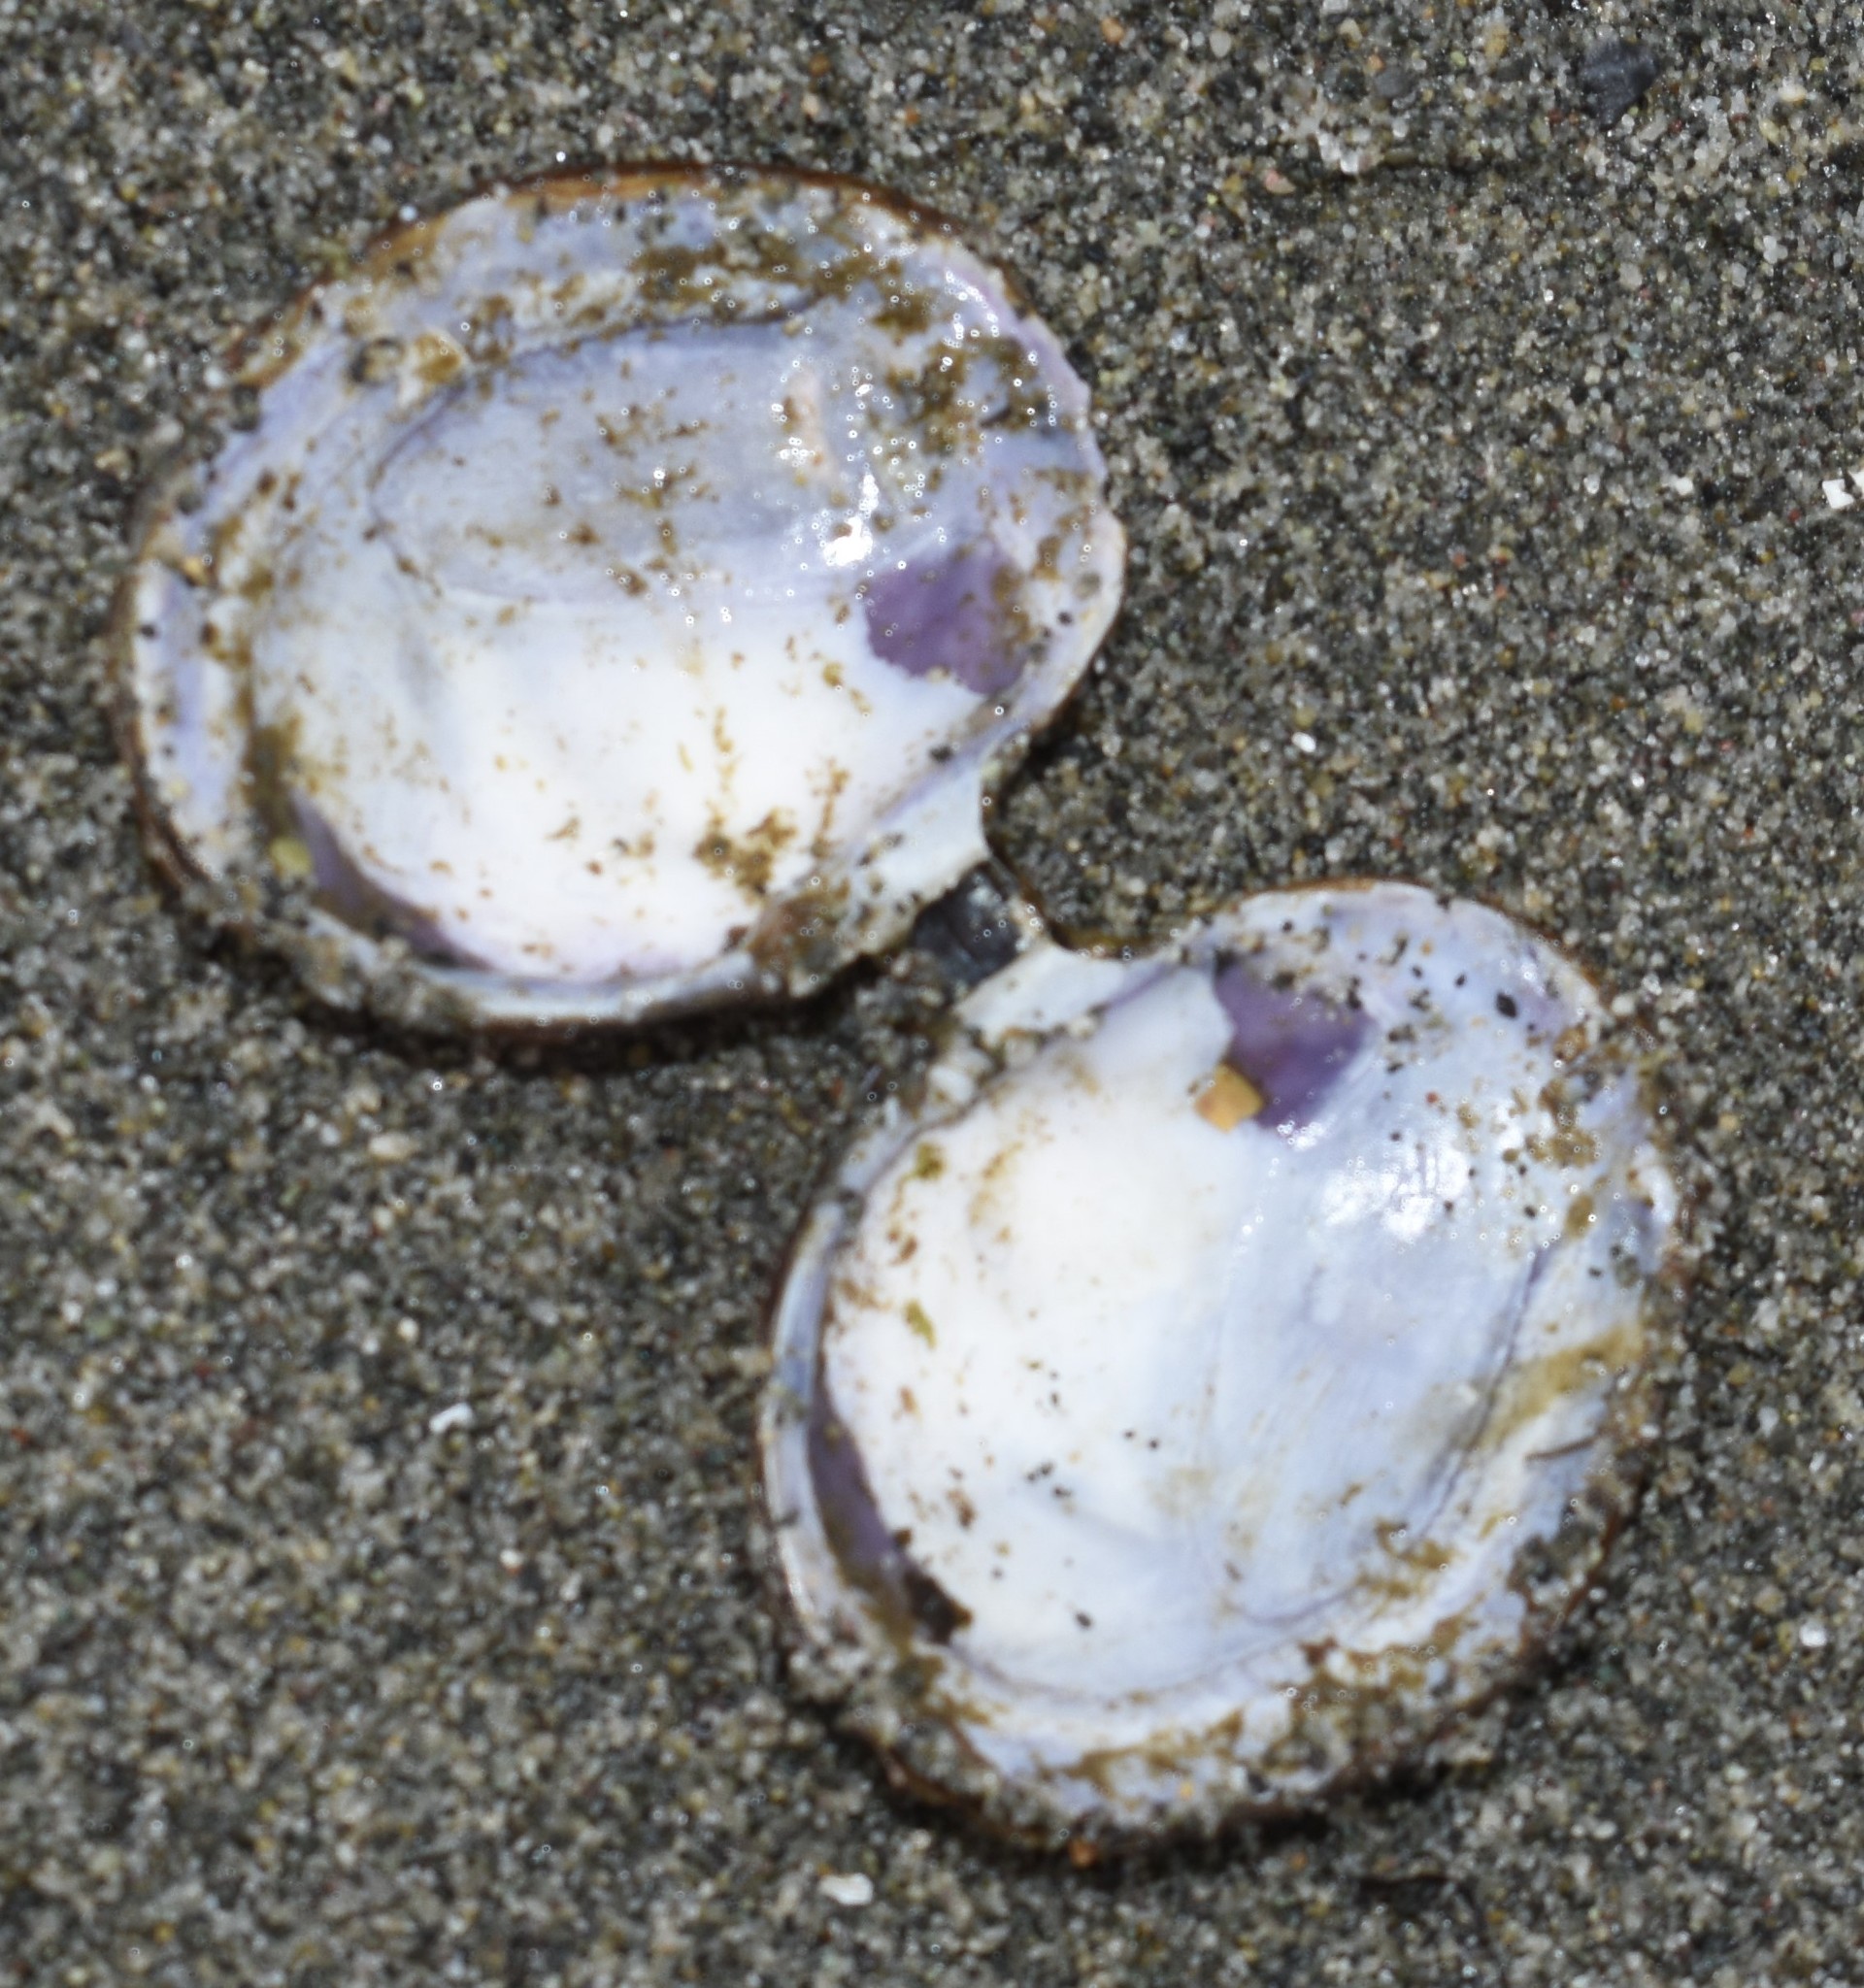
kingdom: Animalia
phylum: Mollusca
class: Bivalvia
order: Cardiida
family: Psammobiidae
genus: Nuttallia
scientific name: Nuttallia obscurata
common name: Purple mahogany-clam
